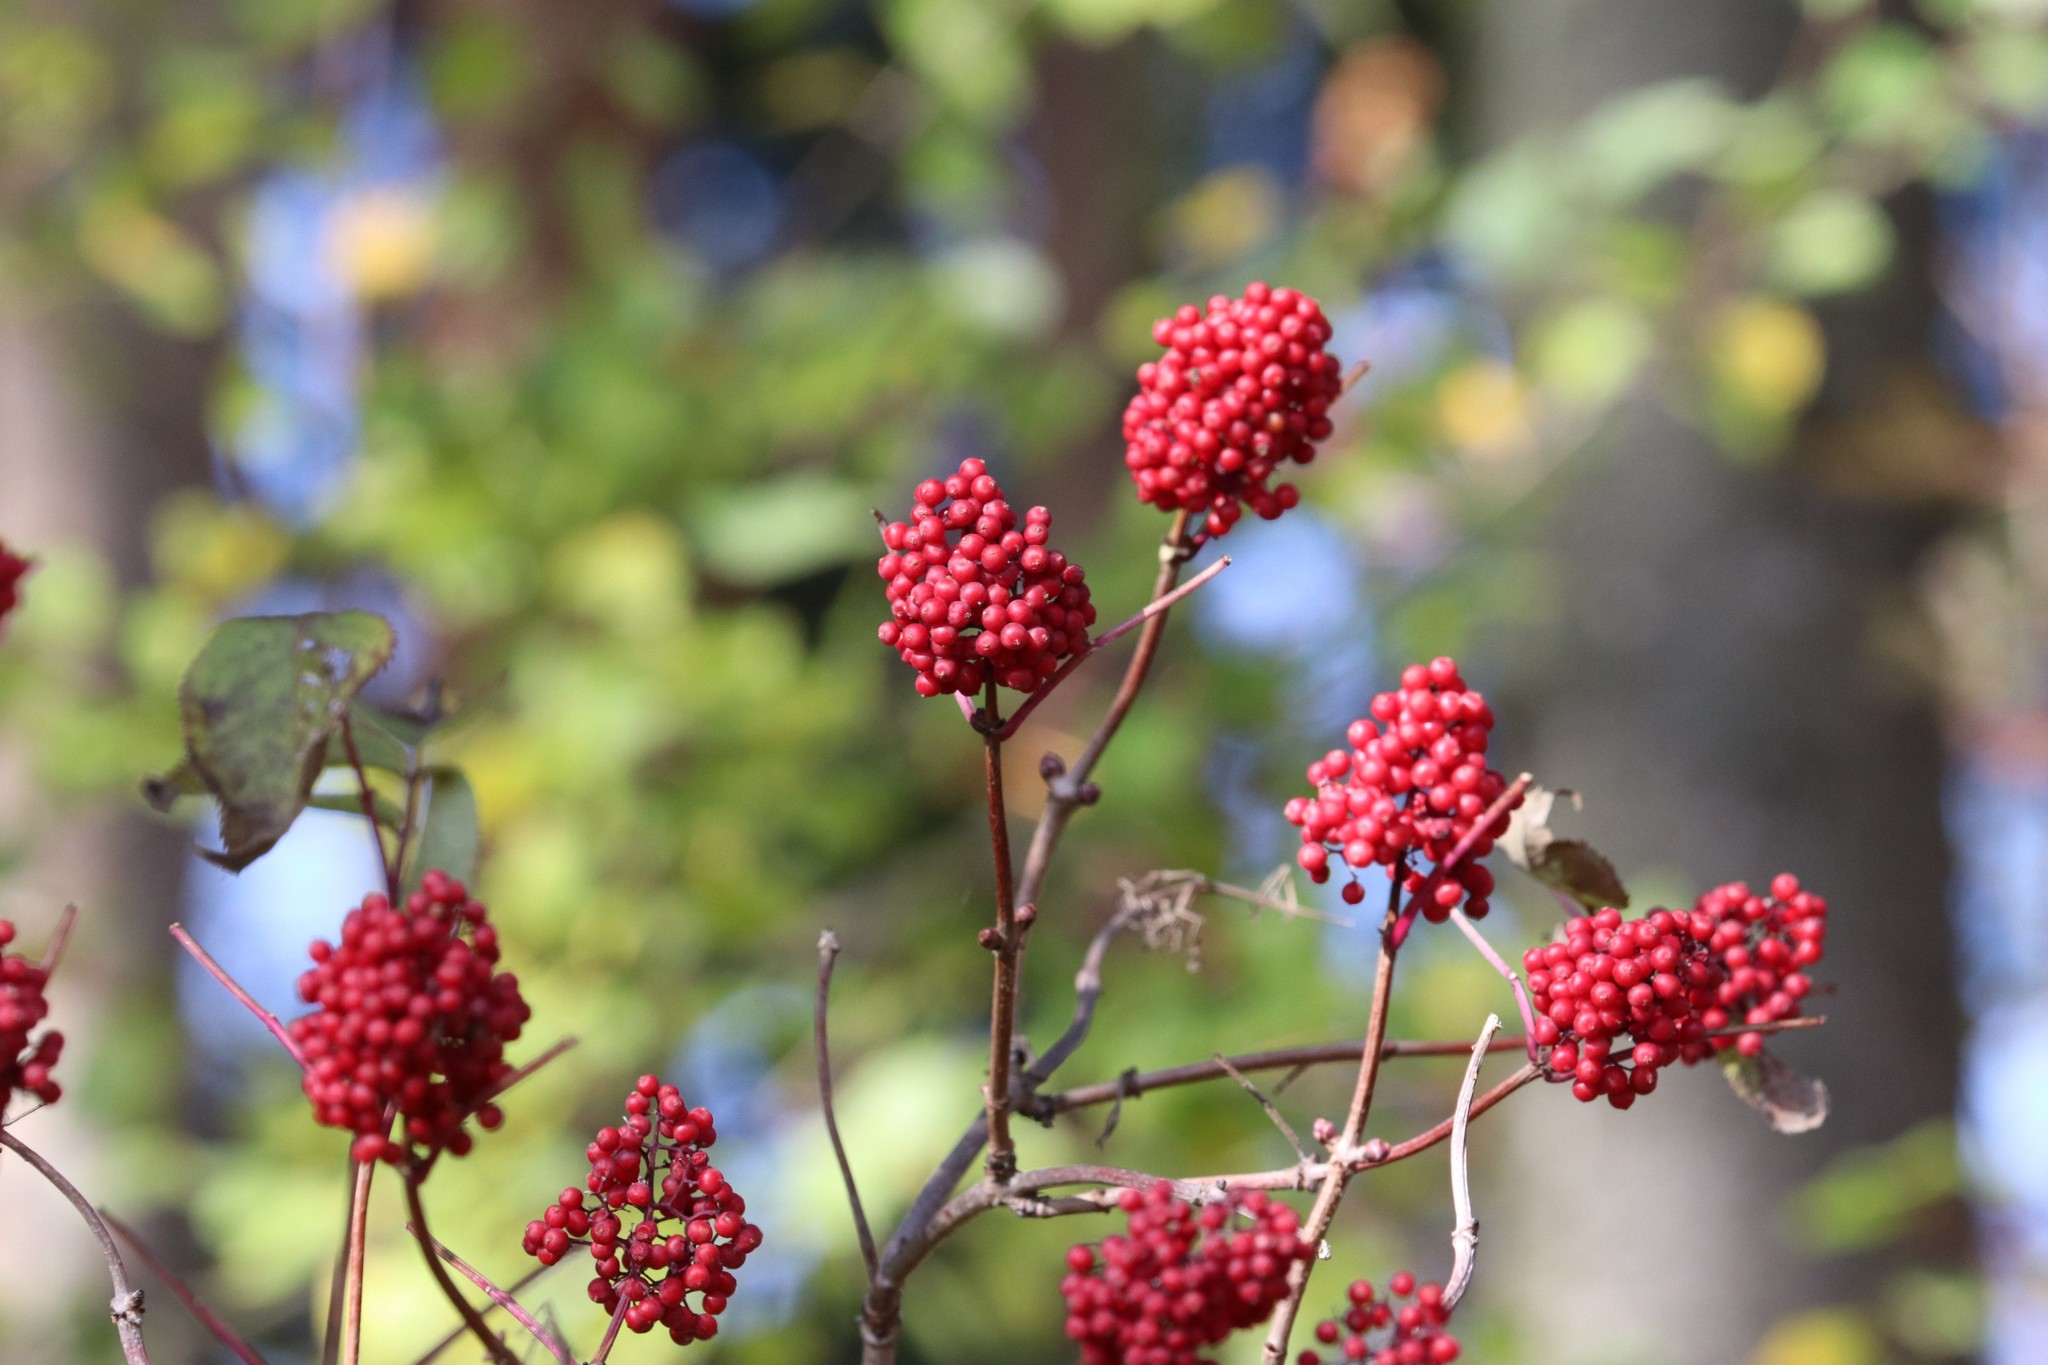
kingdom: Plantae
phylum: Tracheophyta
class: Magnoliopsida
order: Dipsacales
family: Viburnaceae
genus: Sambucus
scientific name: Sambucus racemosa
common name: Red-berried elder
